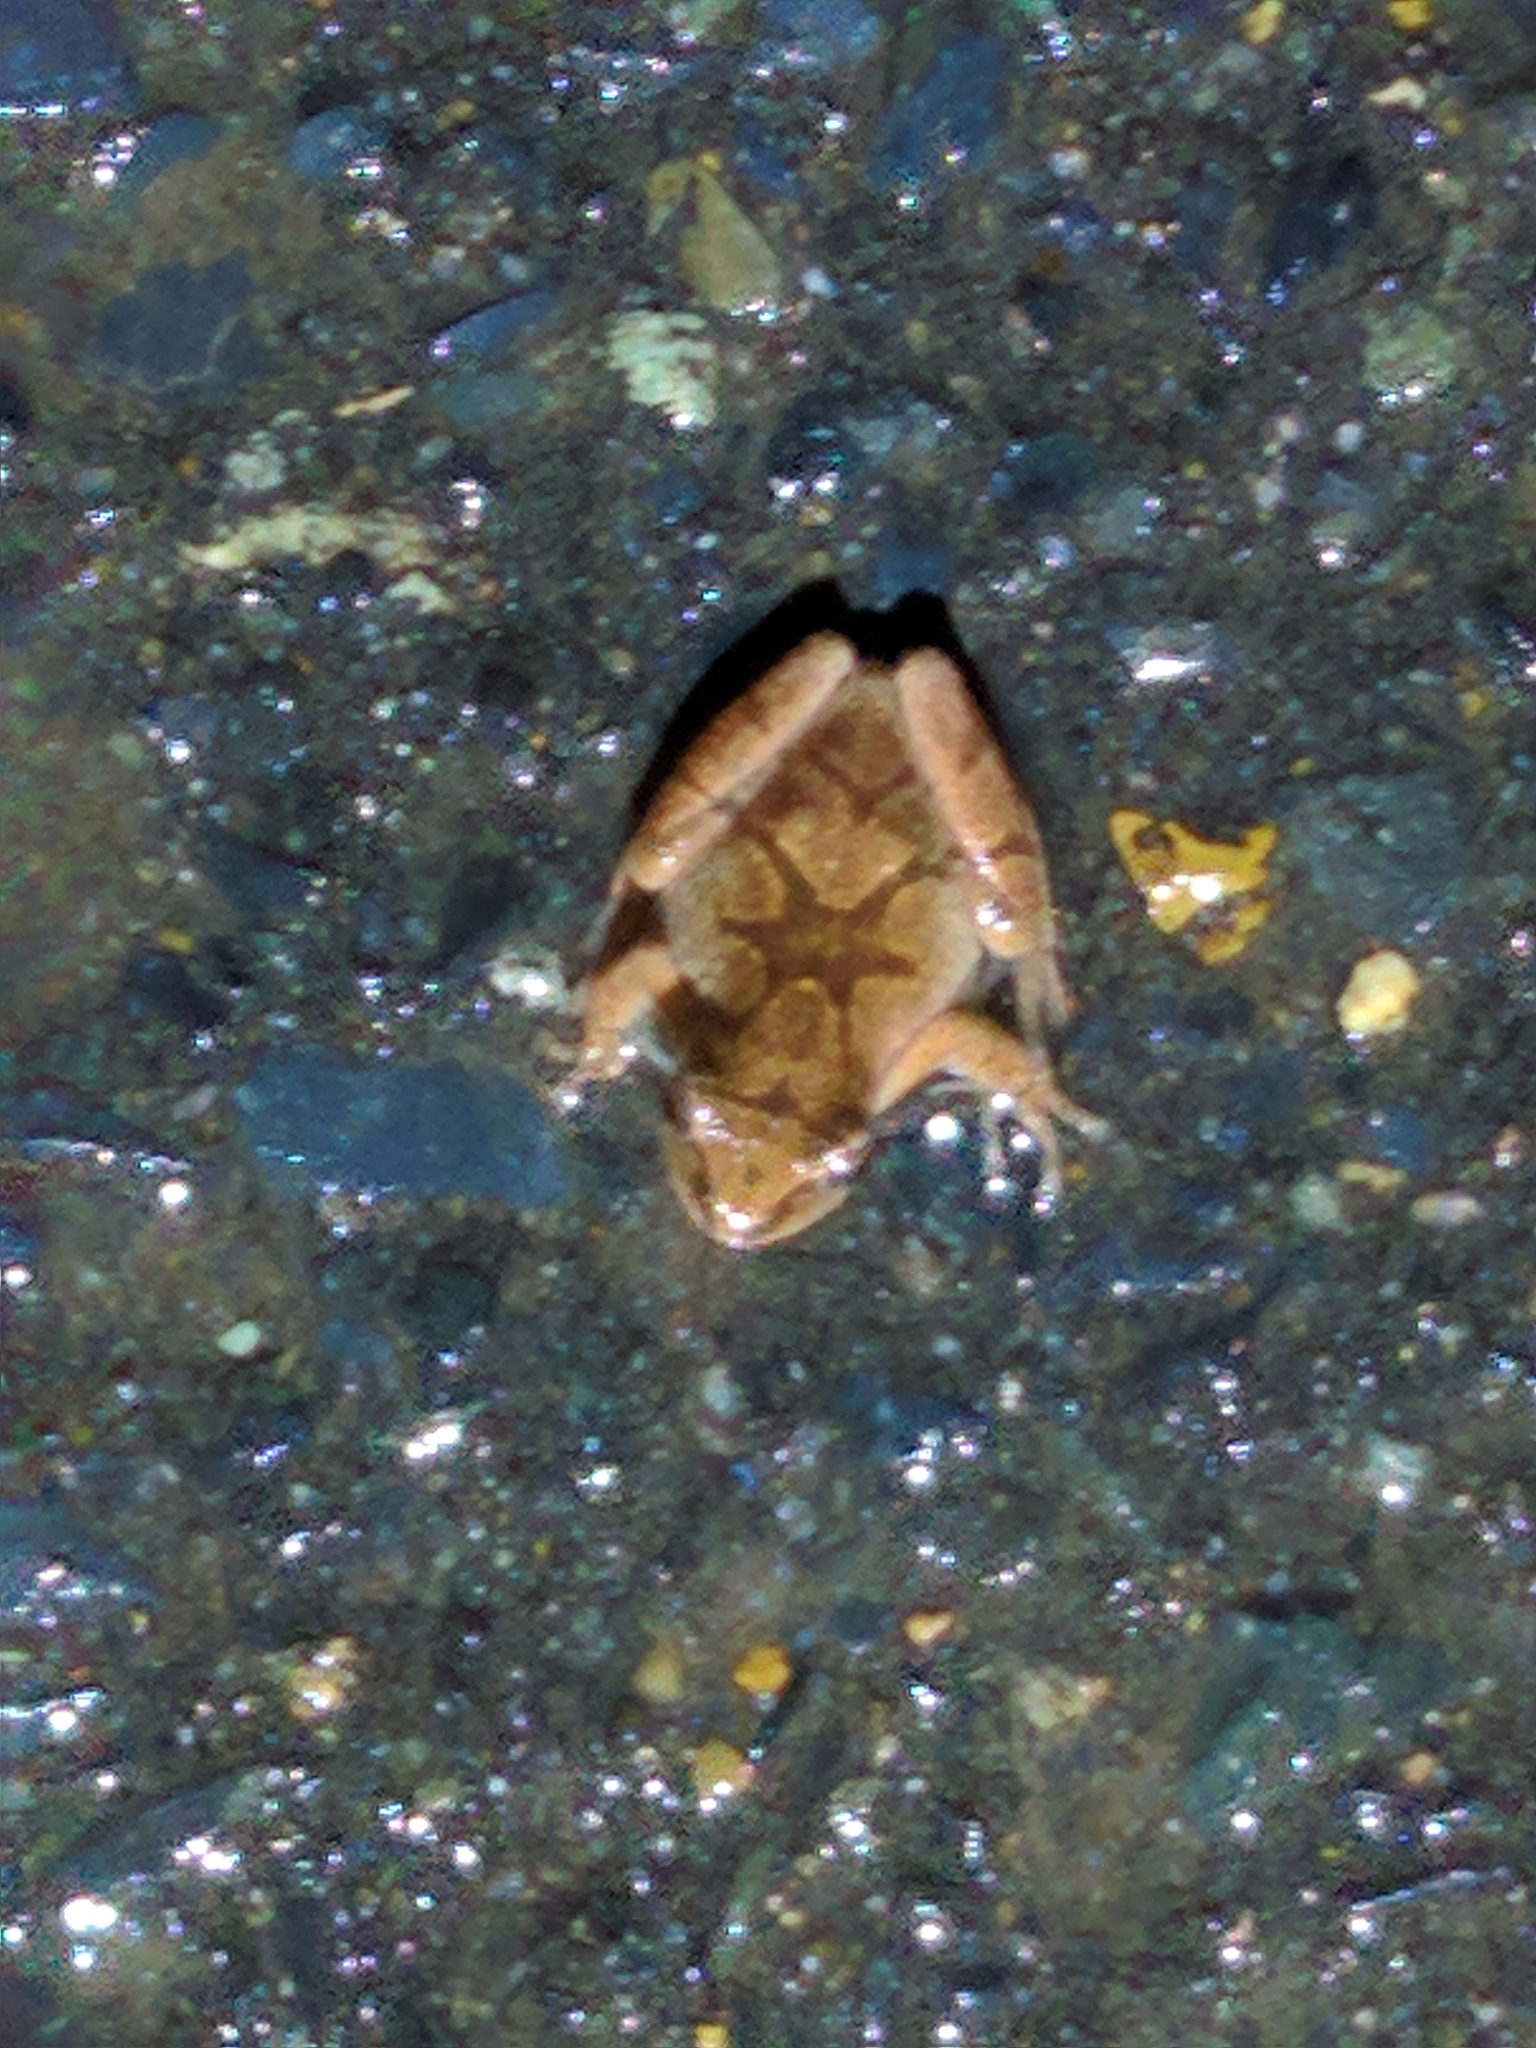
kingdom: Animalia
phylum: Chordata
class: Amphibia
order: Anura
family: Hylidae
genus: Pseudacris
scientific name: Pseudacris crucifer
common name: Spring peeper
